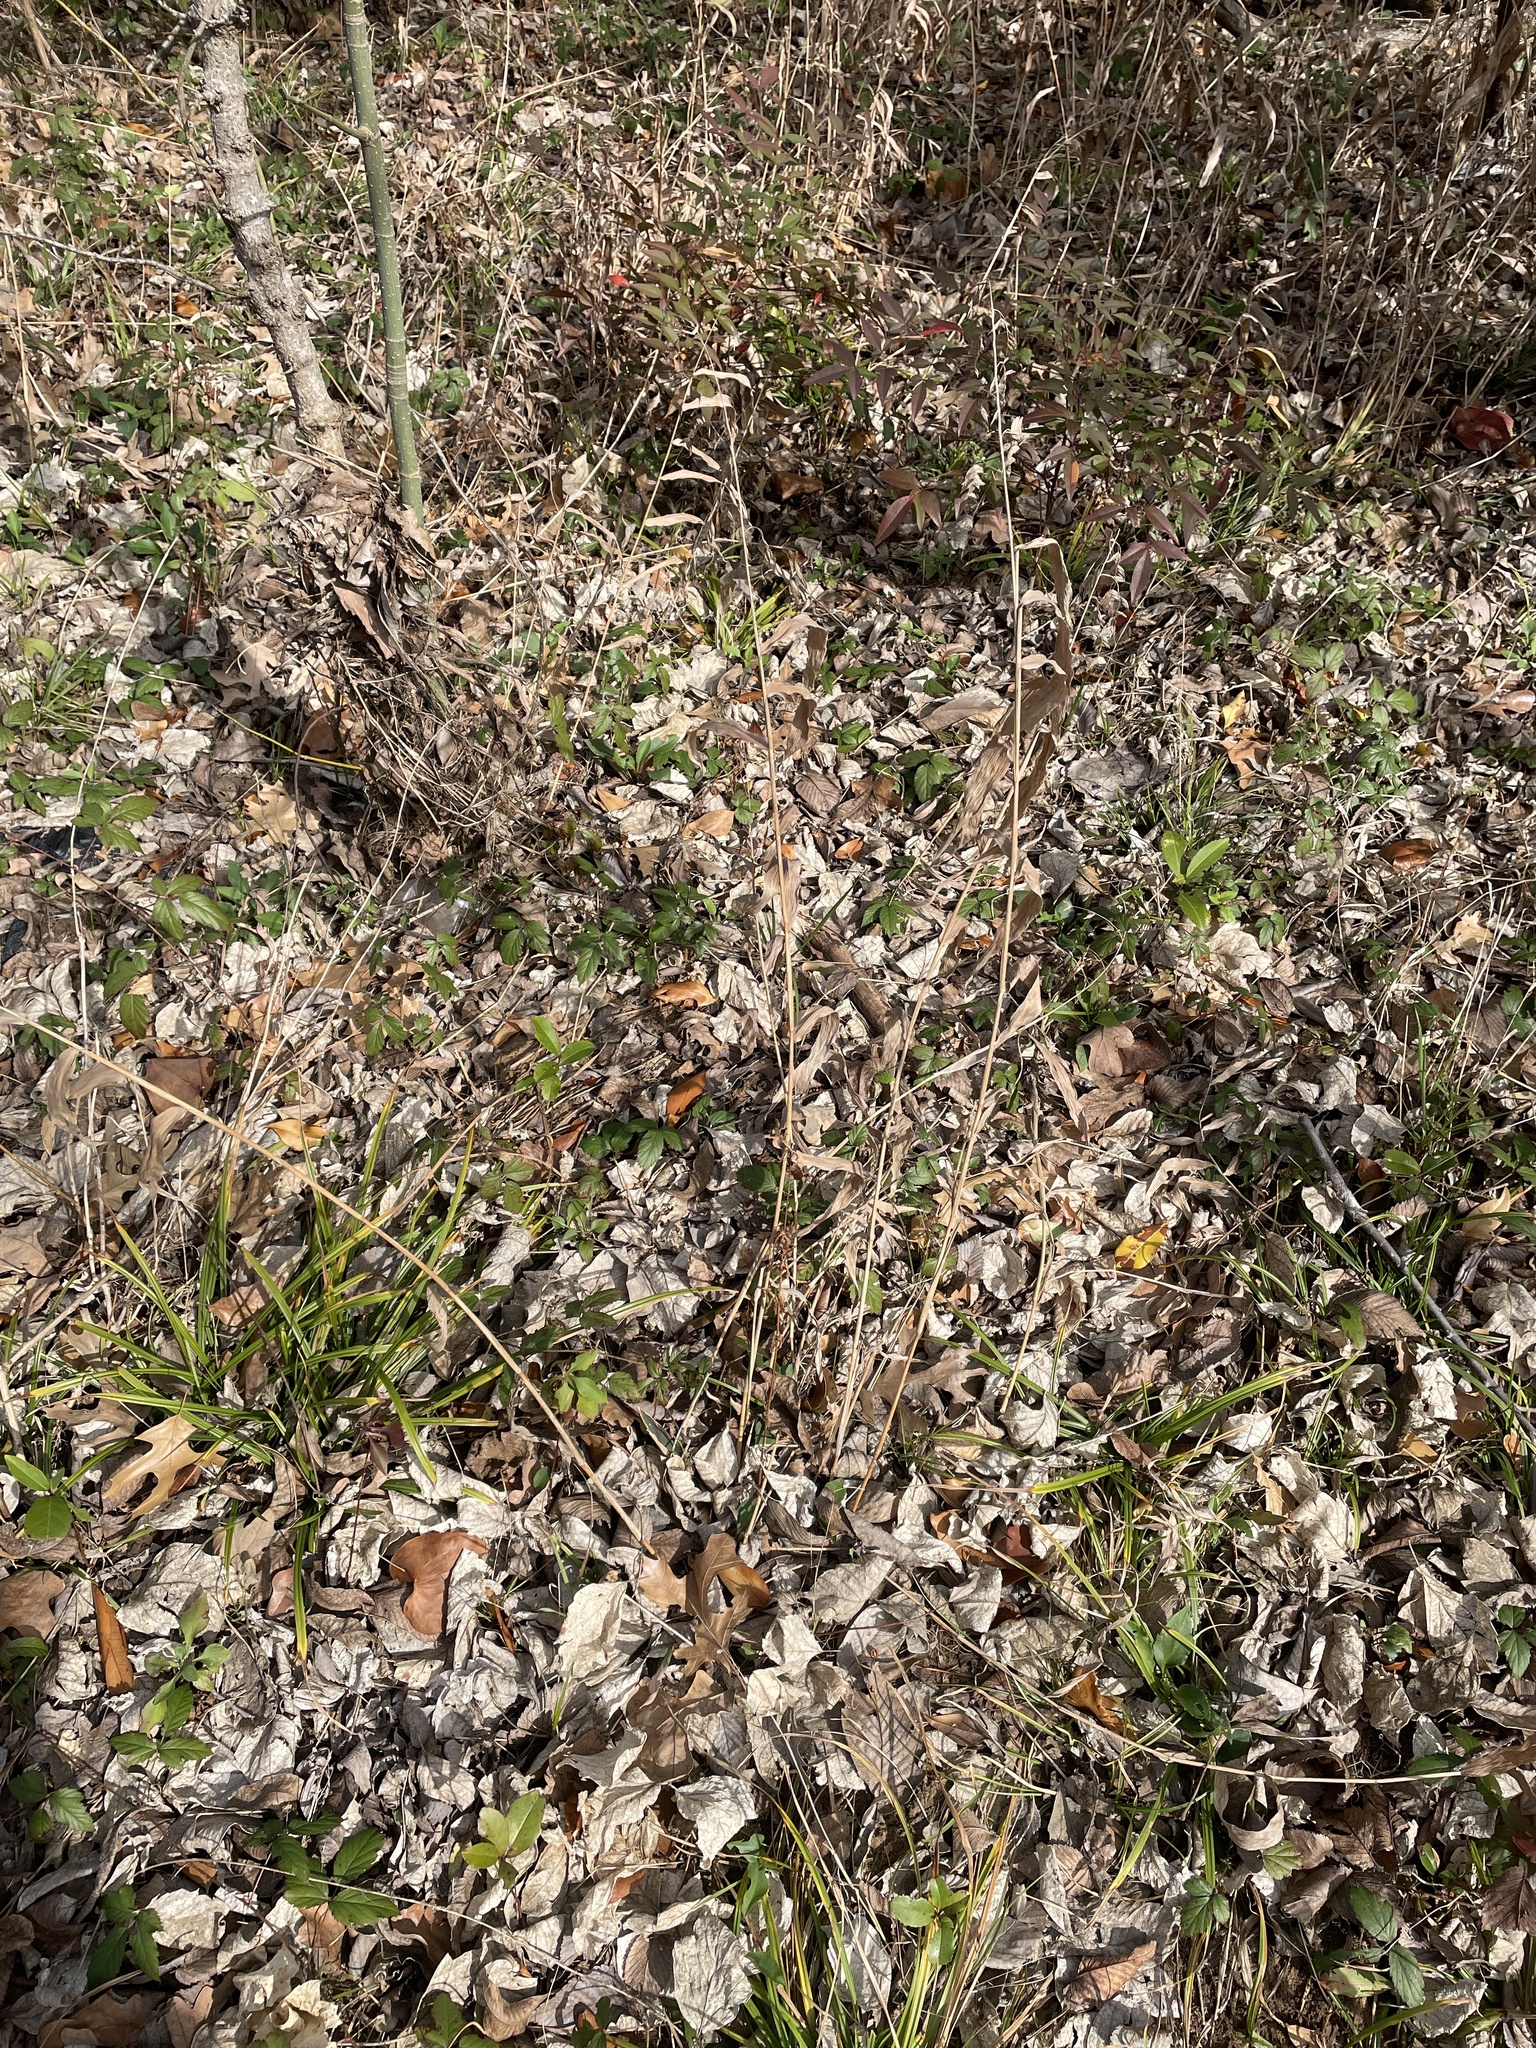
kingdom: Plantae
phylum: Tracheophyta
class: Liliopsida
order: Poales
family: Poaceae
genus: Chasmanthium
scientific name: Chasmanthium latifolium
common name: Broad-leaved chasmanthium
